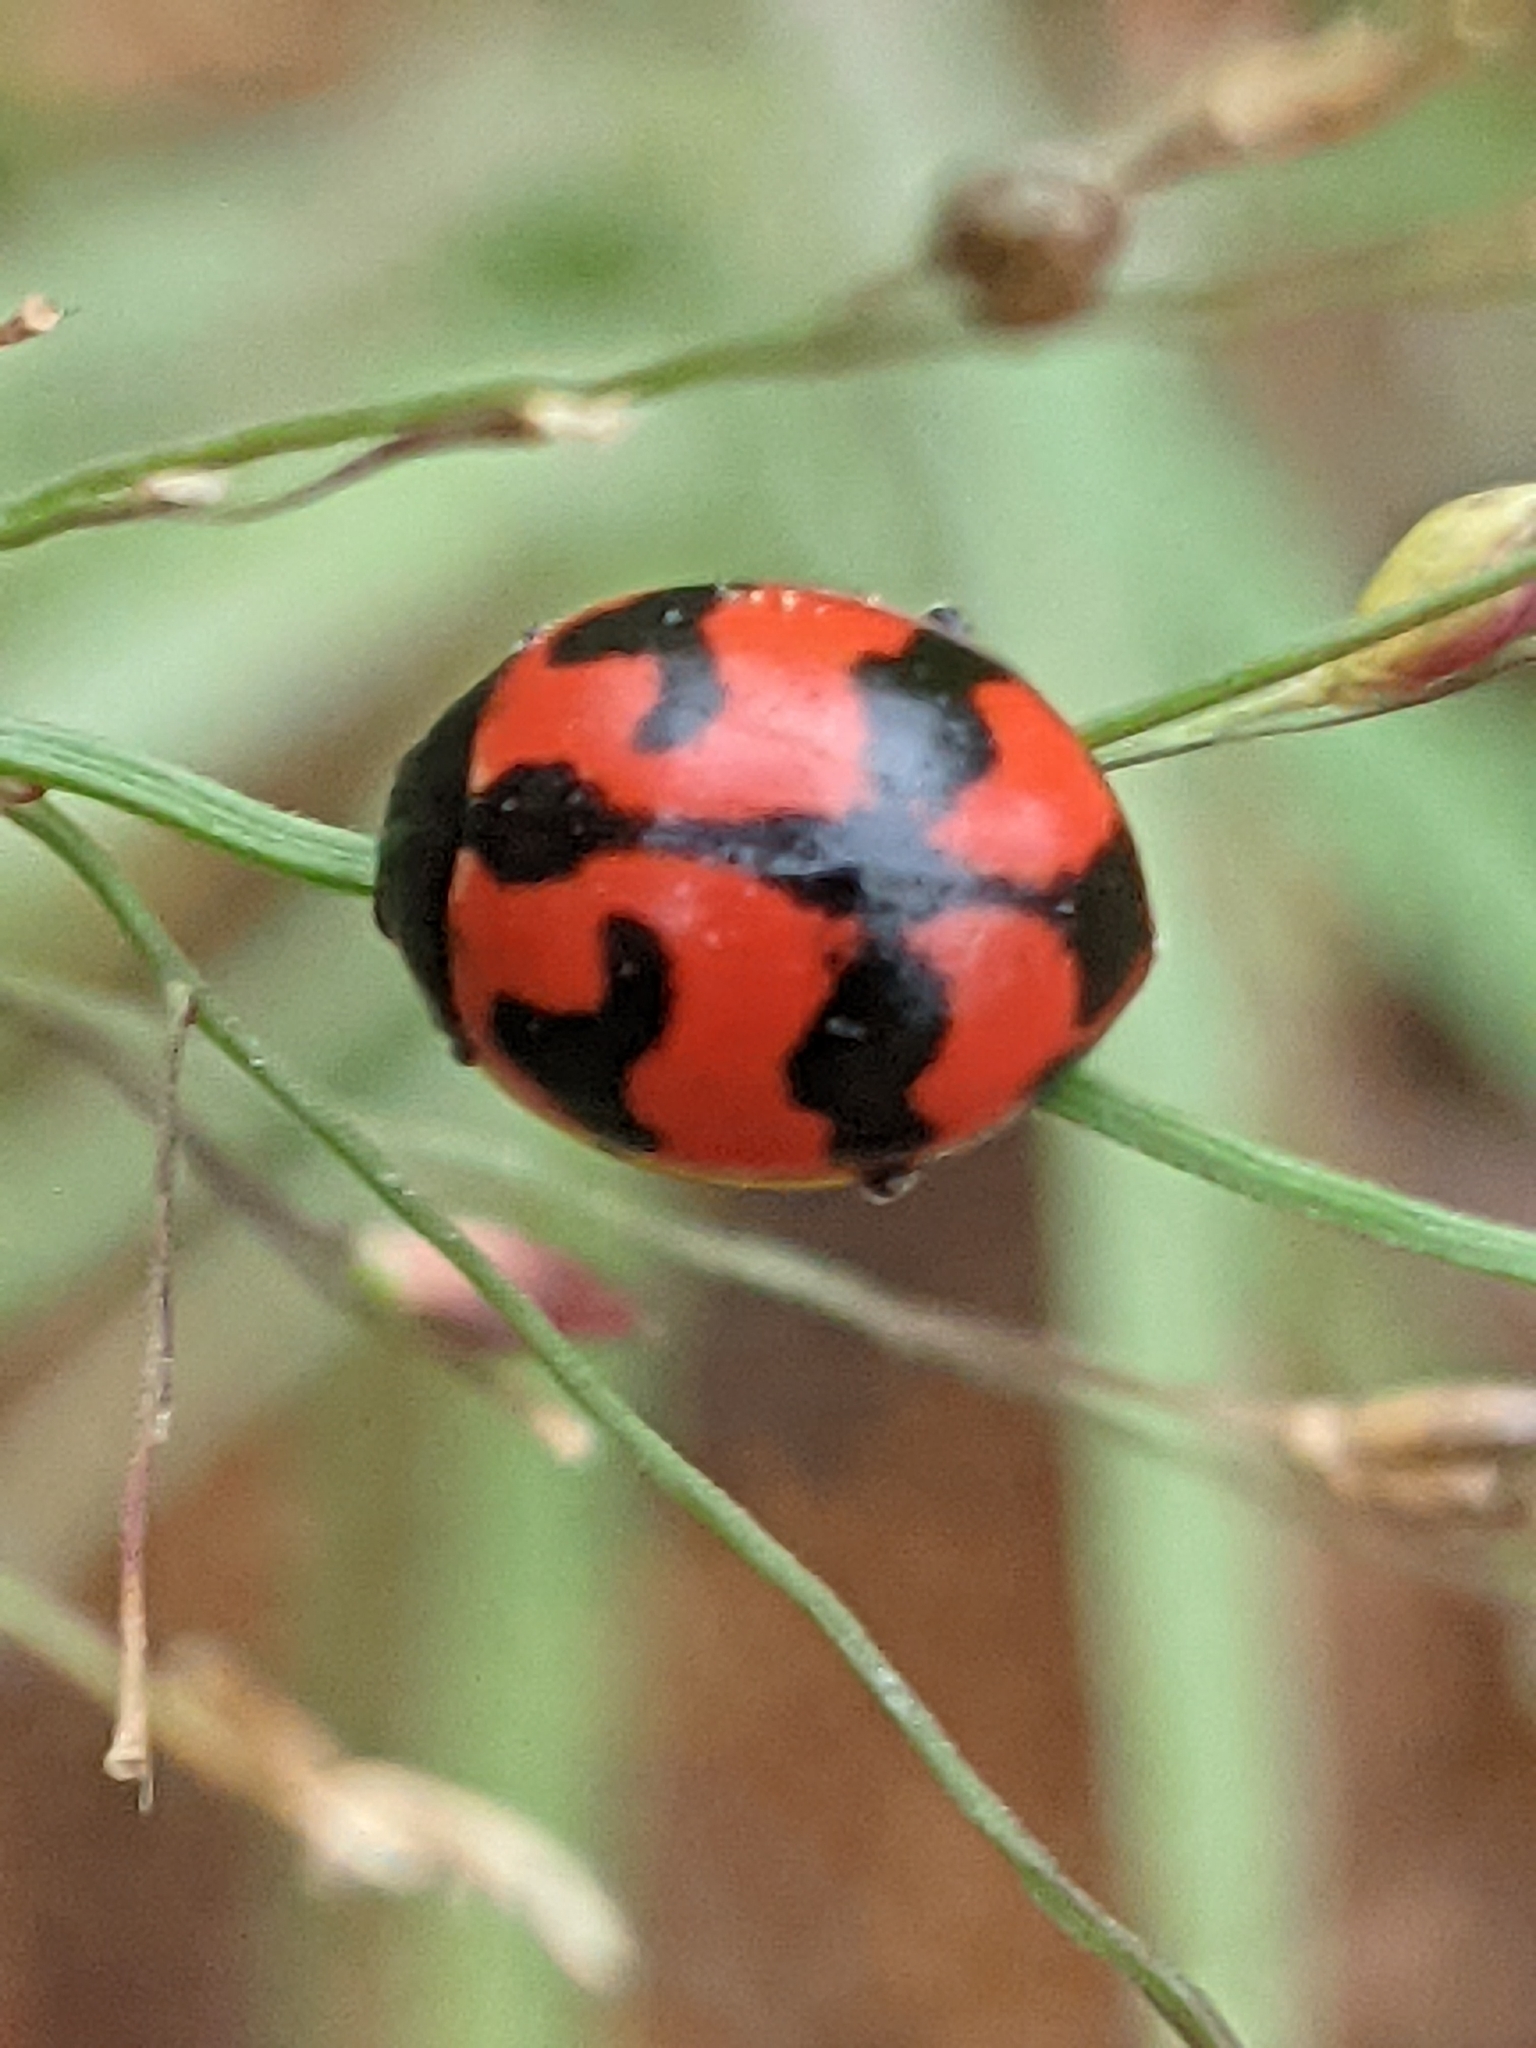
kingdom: Animalia
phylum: Arthropoda
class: Insecta
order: Coleoptera
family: Coccinellidae
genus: Coccinella
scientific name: Coccinella transversalis
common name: Transverse lady beetle
